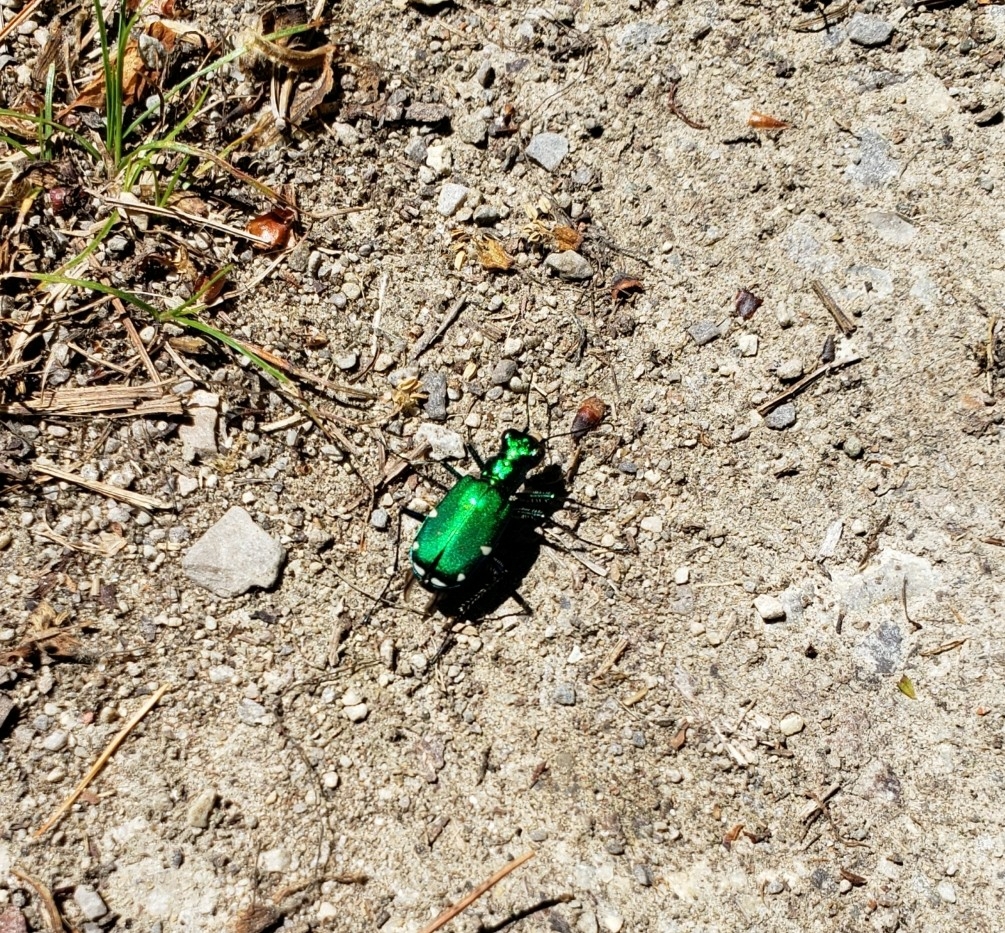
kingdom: Animalia
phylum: Arthropoda
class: Insecta
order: Coleoptera
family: Carabidae
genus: Cicindela
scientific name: Cicindela sexguttata
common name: Six-spotted tiger beetle
